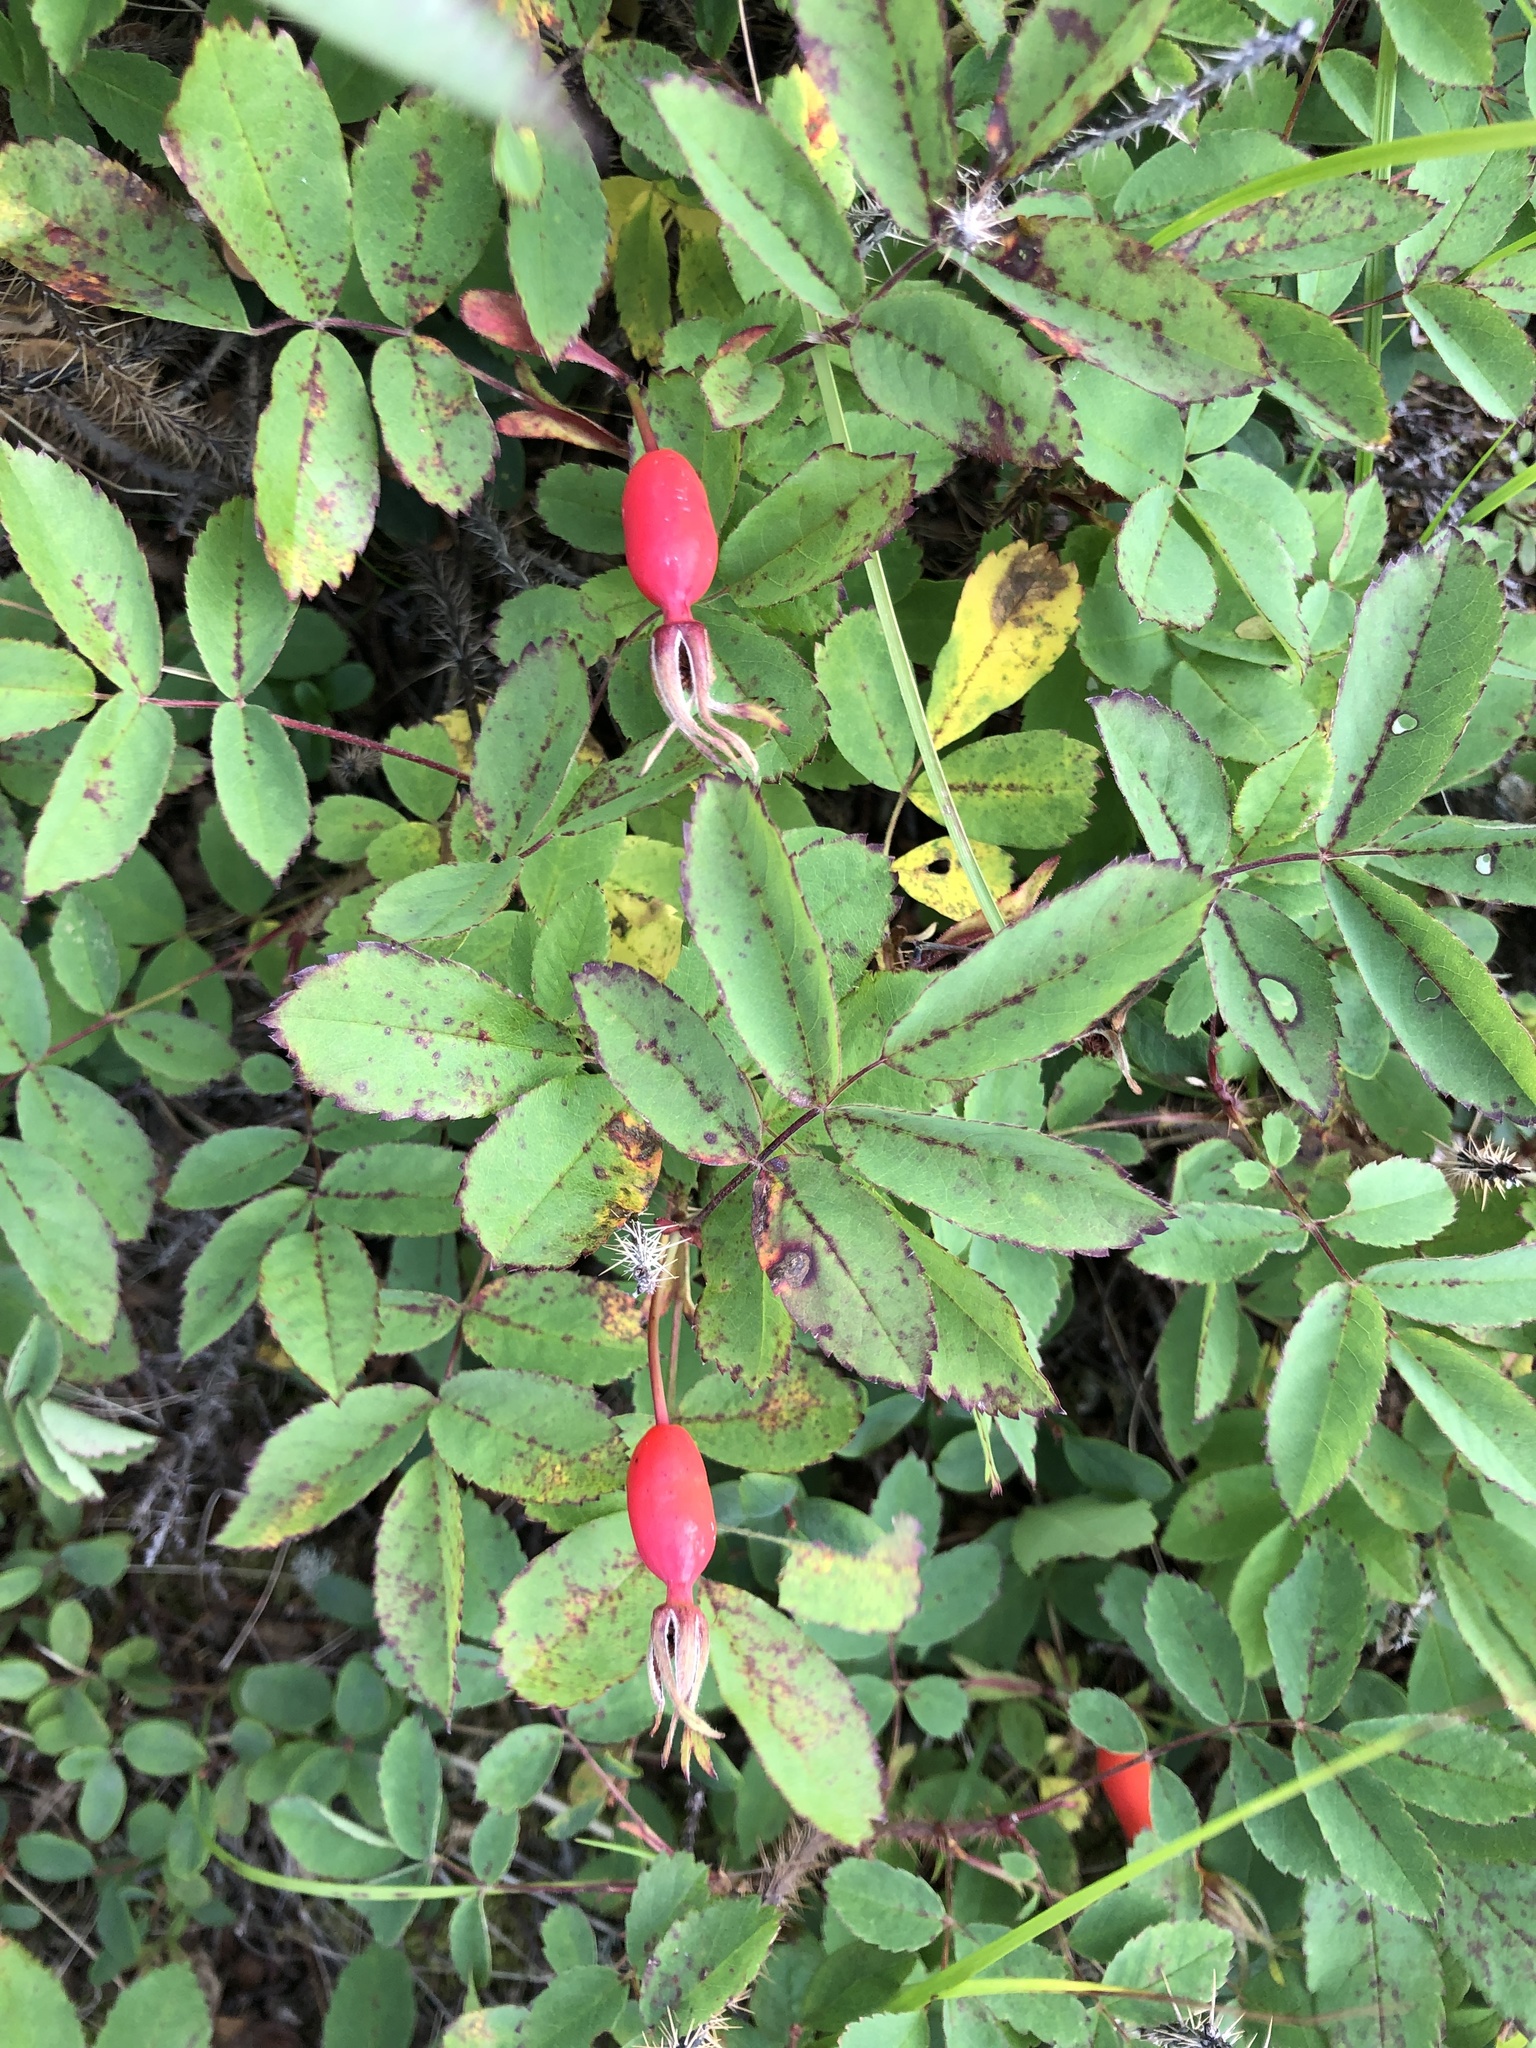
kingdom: Plantae
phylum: Tracheophyta
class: Magnoliopsida
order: Rosales
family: Rosaceae
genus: Rosa
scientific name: Rosa acicularis
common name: Prickly rose
